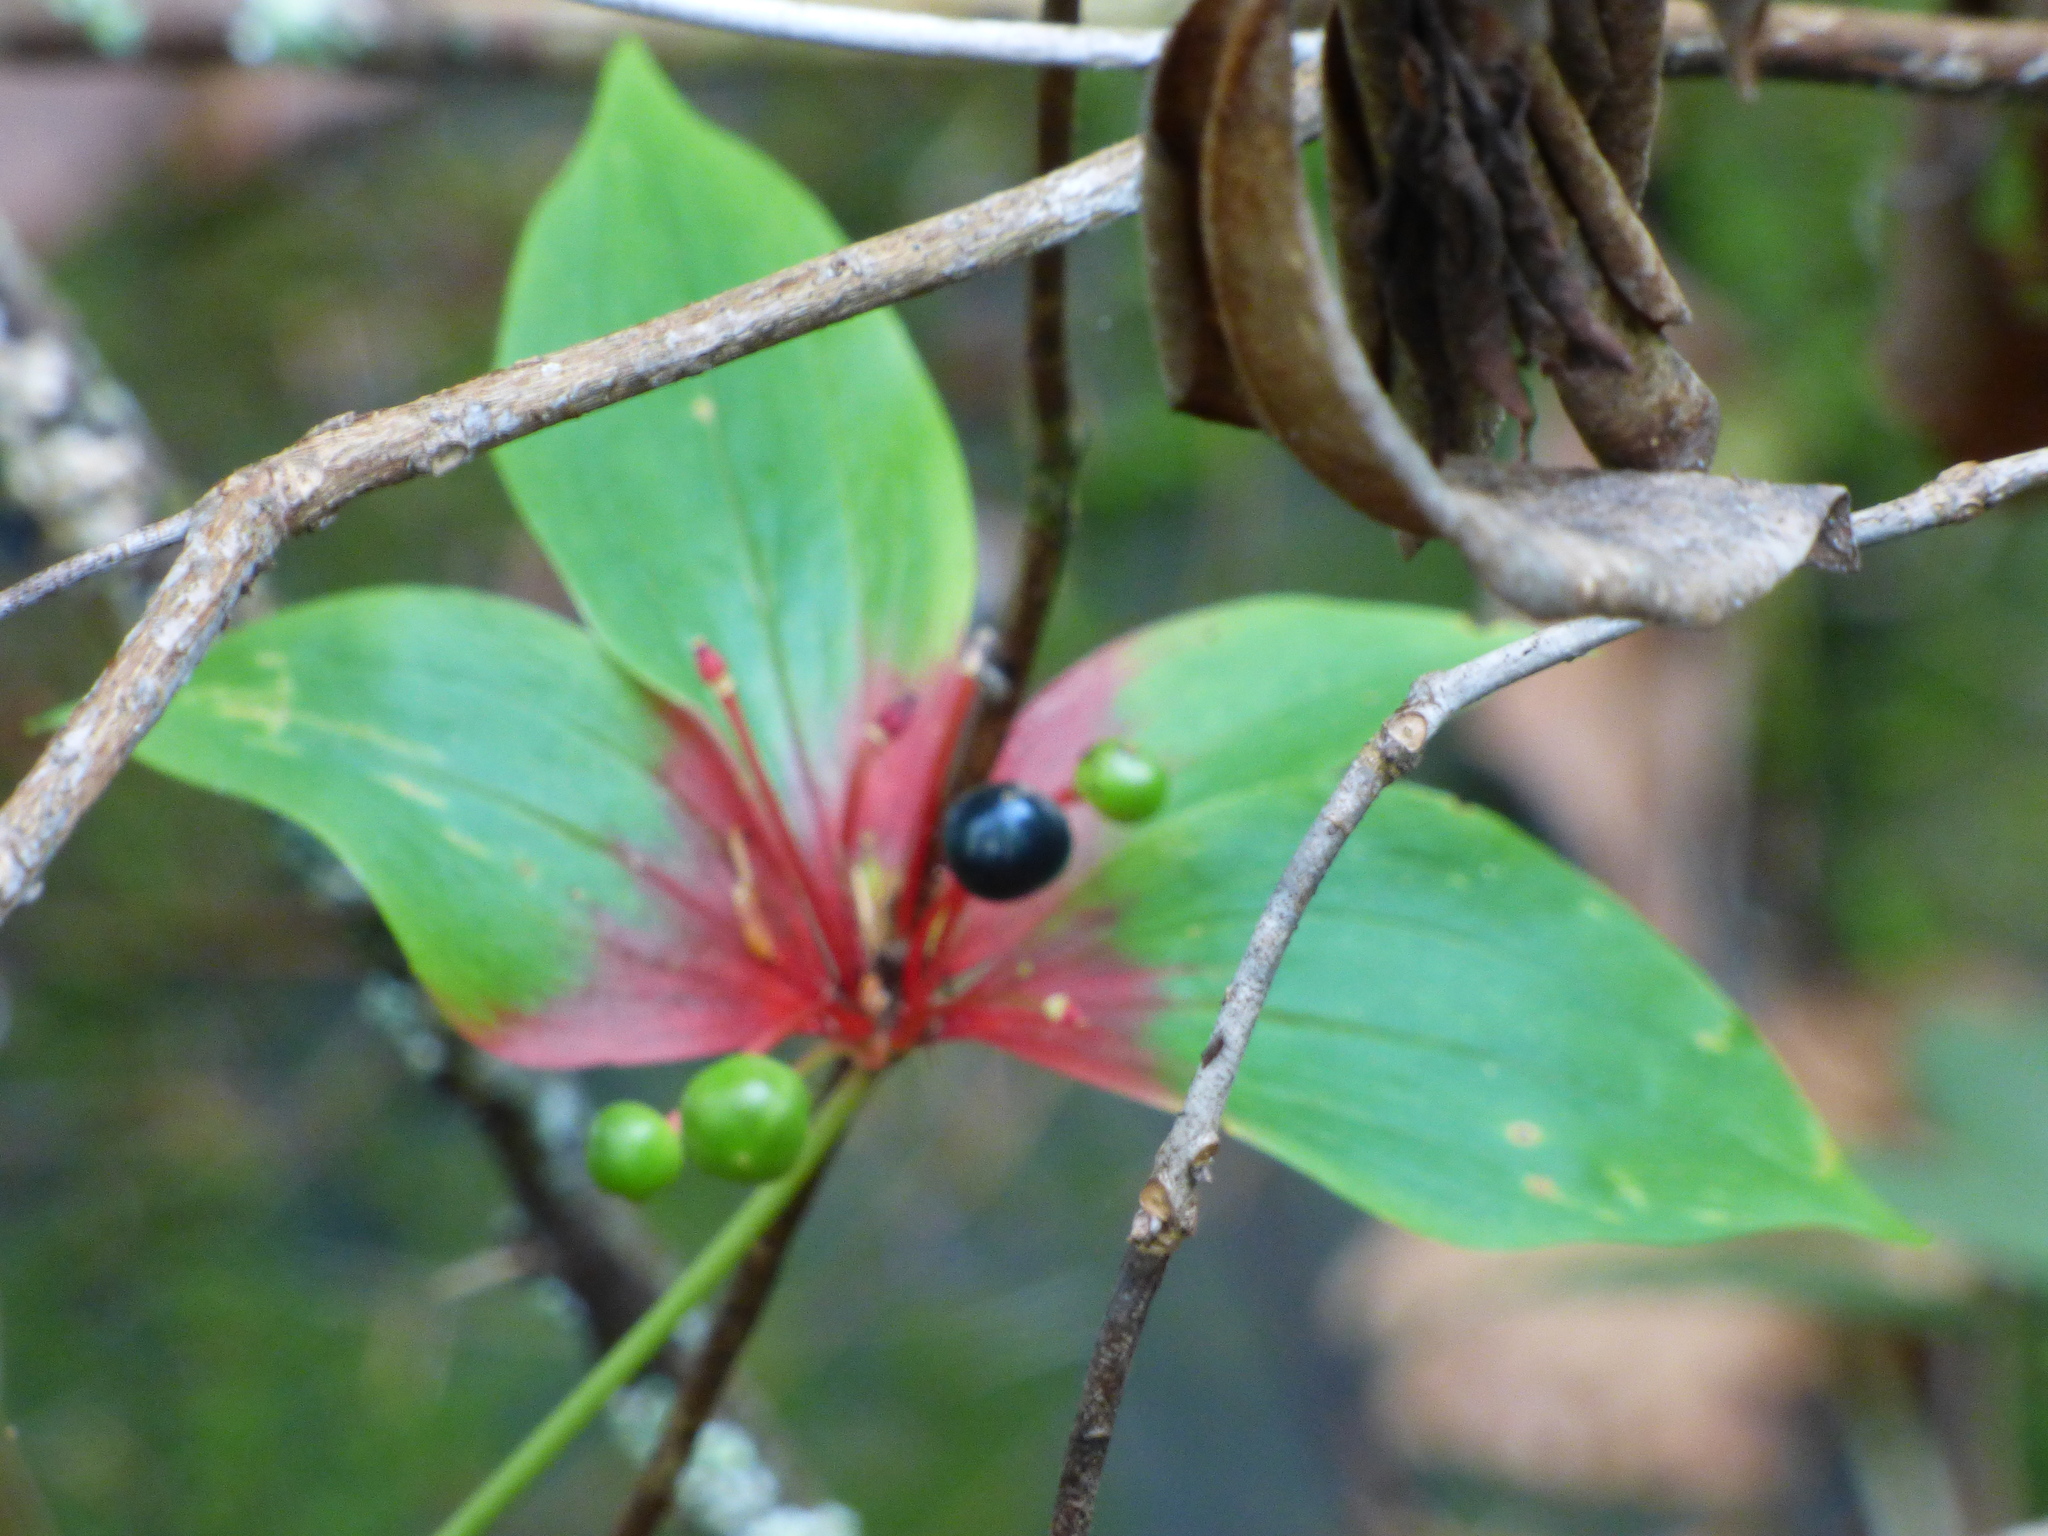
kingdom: Plantae
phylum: Tracheophyta
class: Liliopsida
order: Liliales
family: Liliaceae
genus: Medeola
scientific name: Medeola virginiana
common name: Indian cucumber-root
